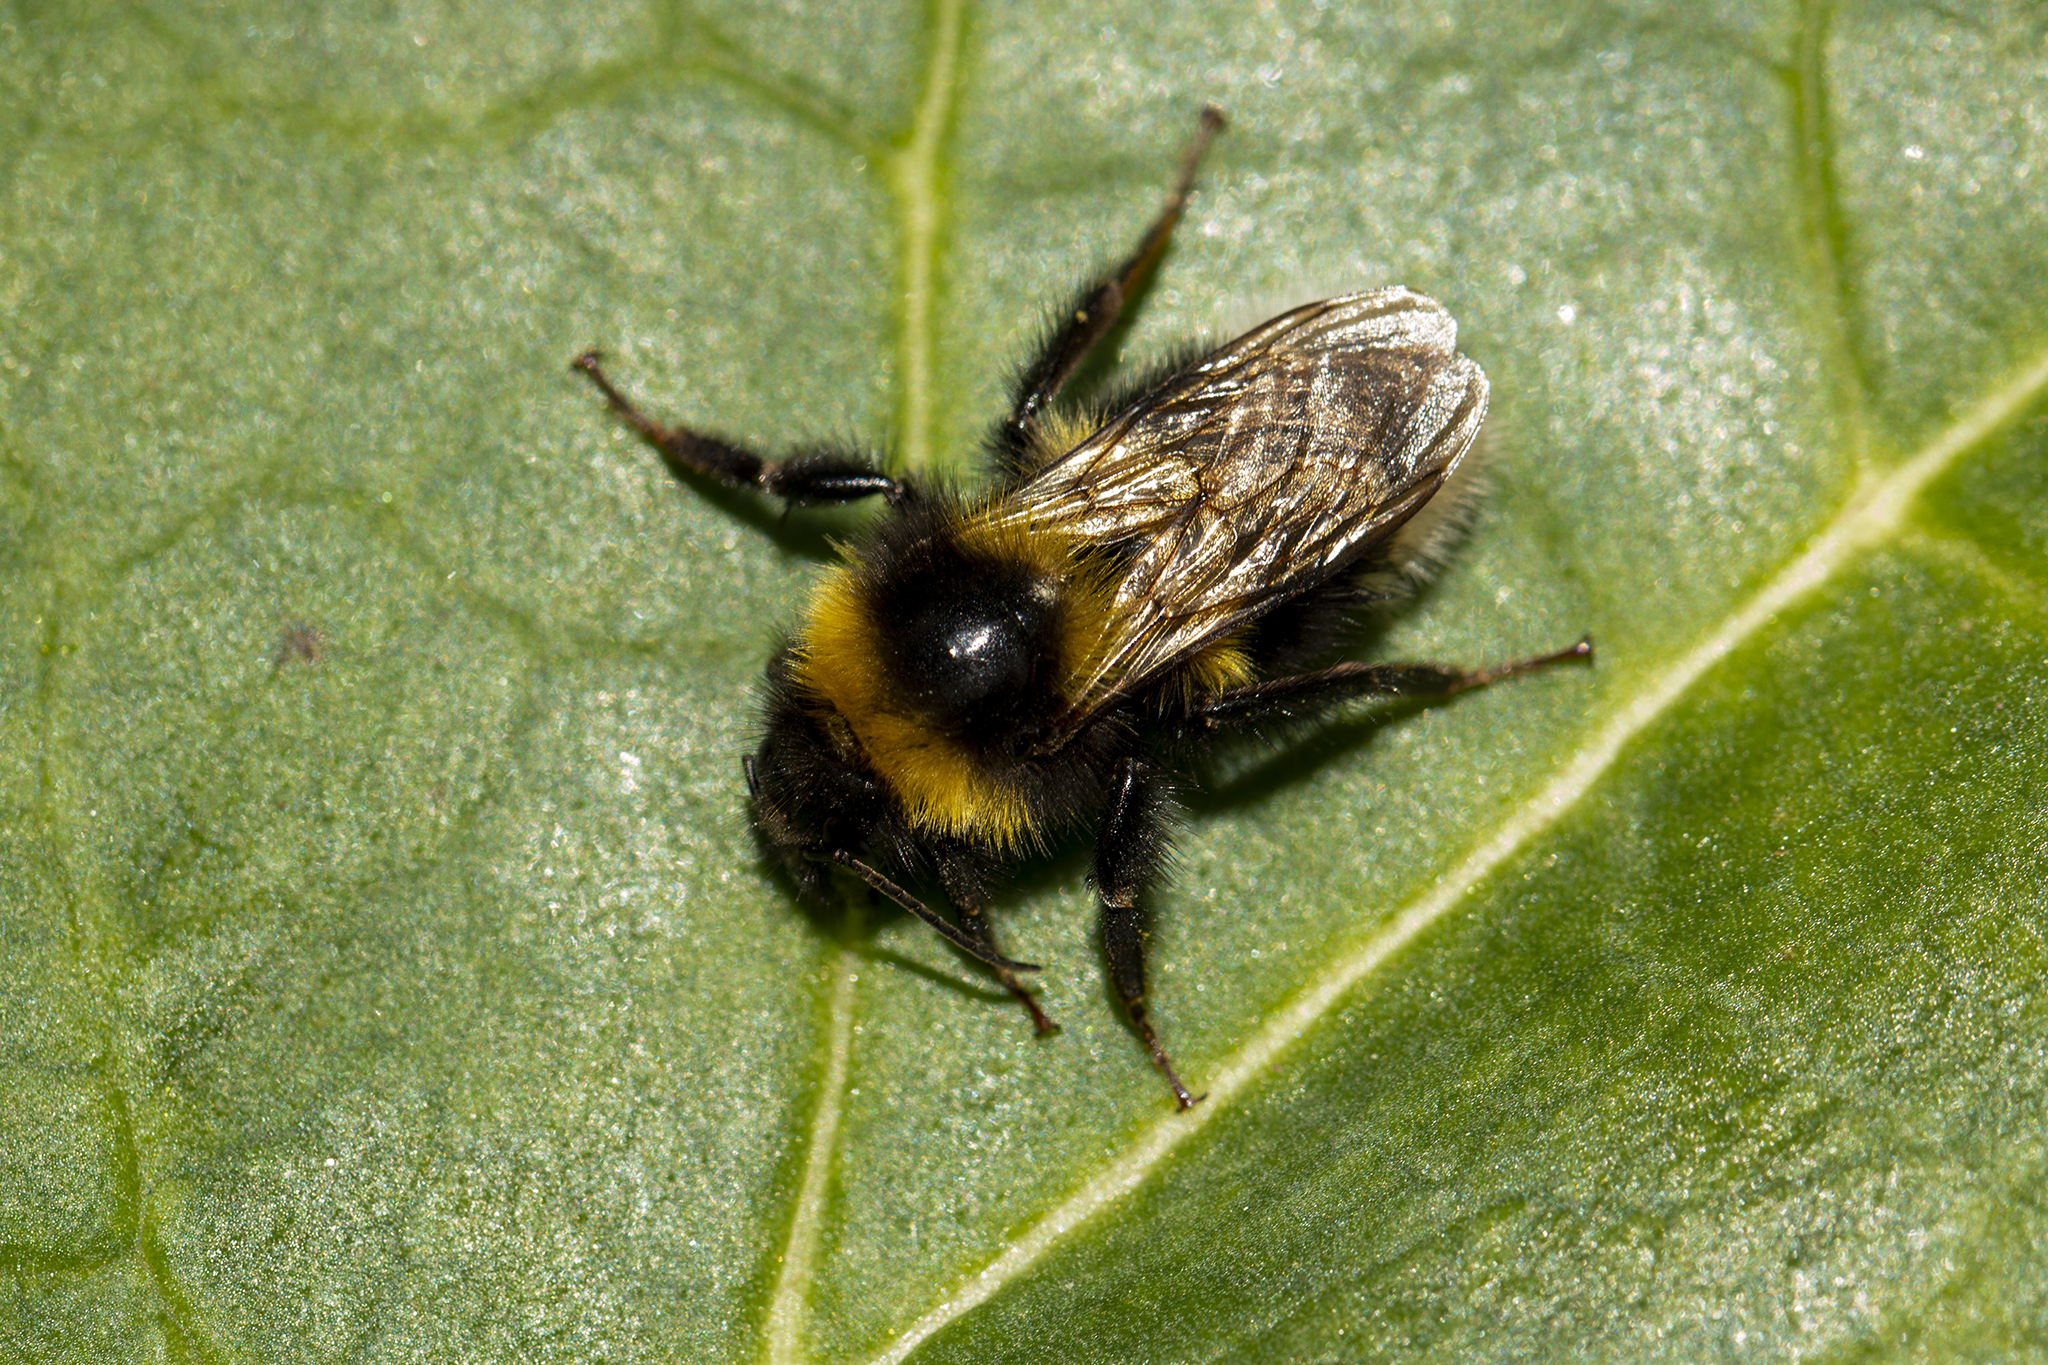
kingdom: Animalia
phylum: Arthropoda
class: Insecta
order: Hymenoptera
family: Apidae
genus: Bombus
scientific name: Bombus hortorum
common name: Garden bumblebee
